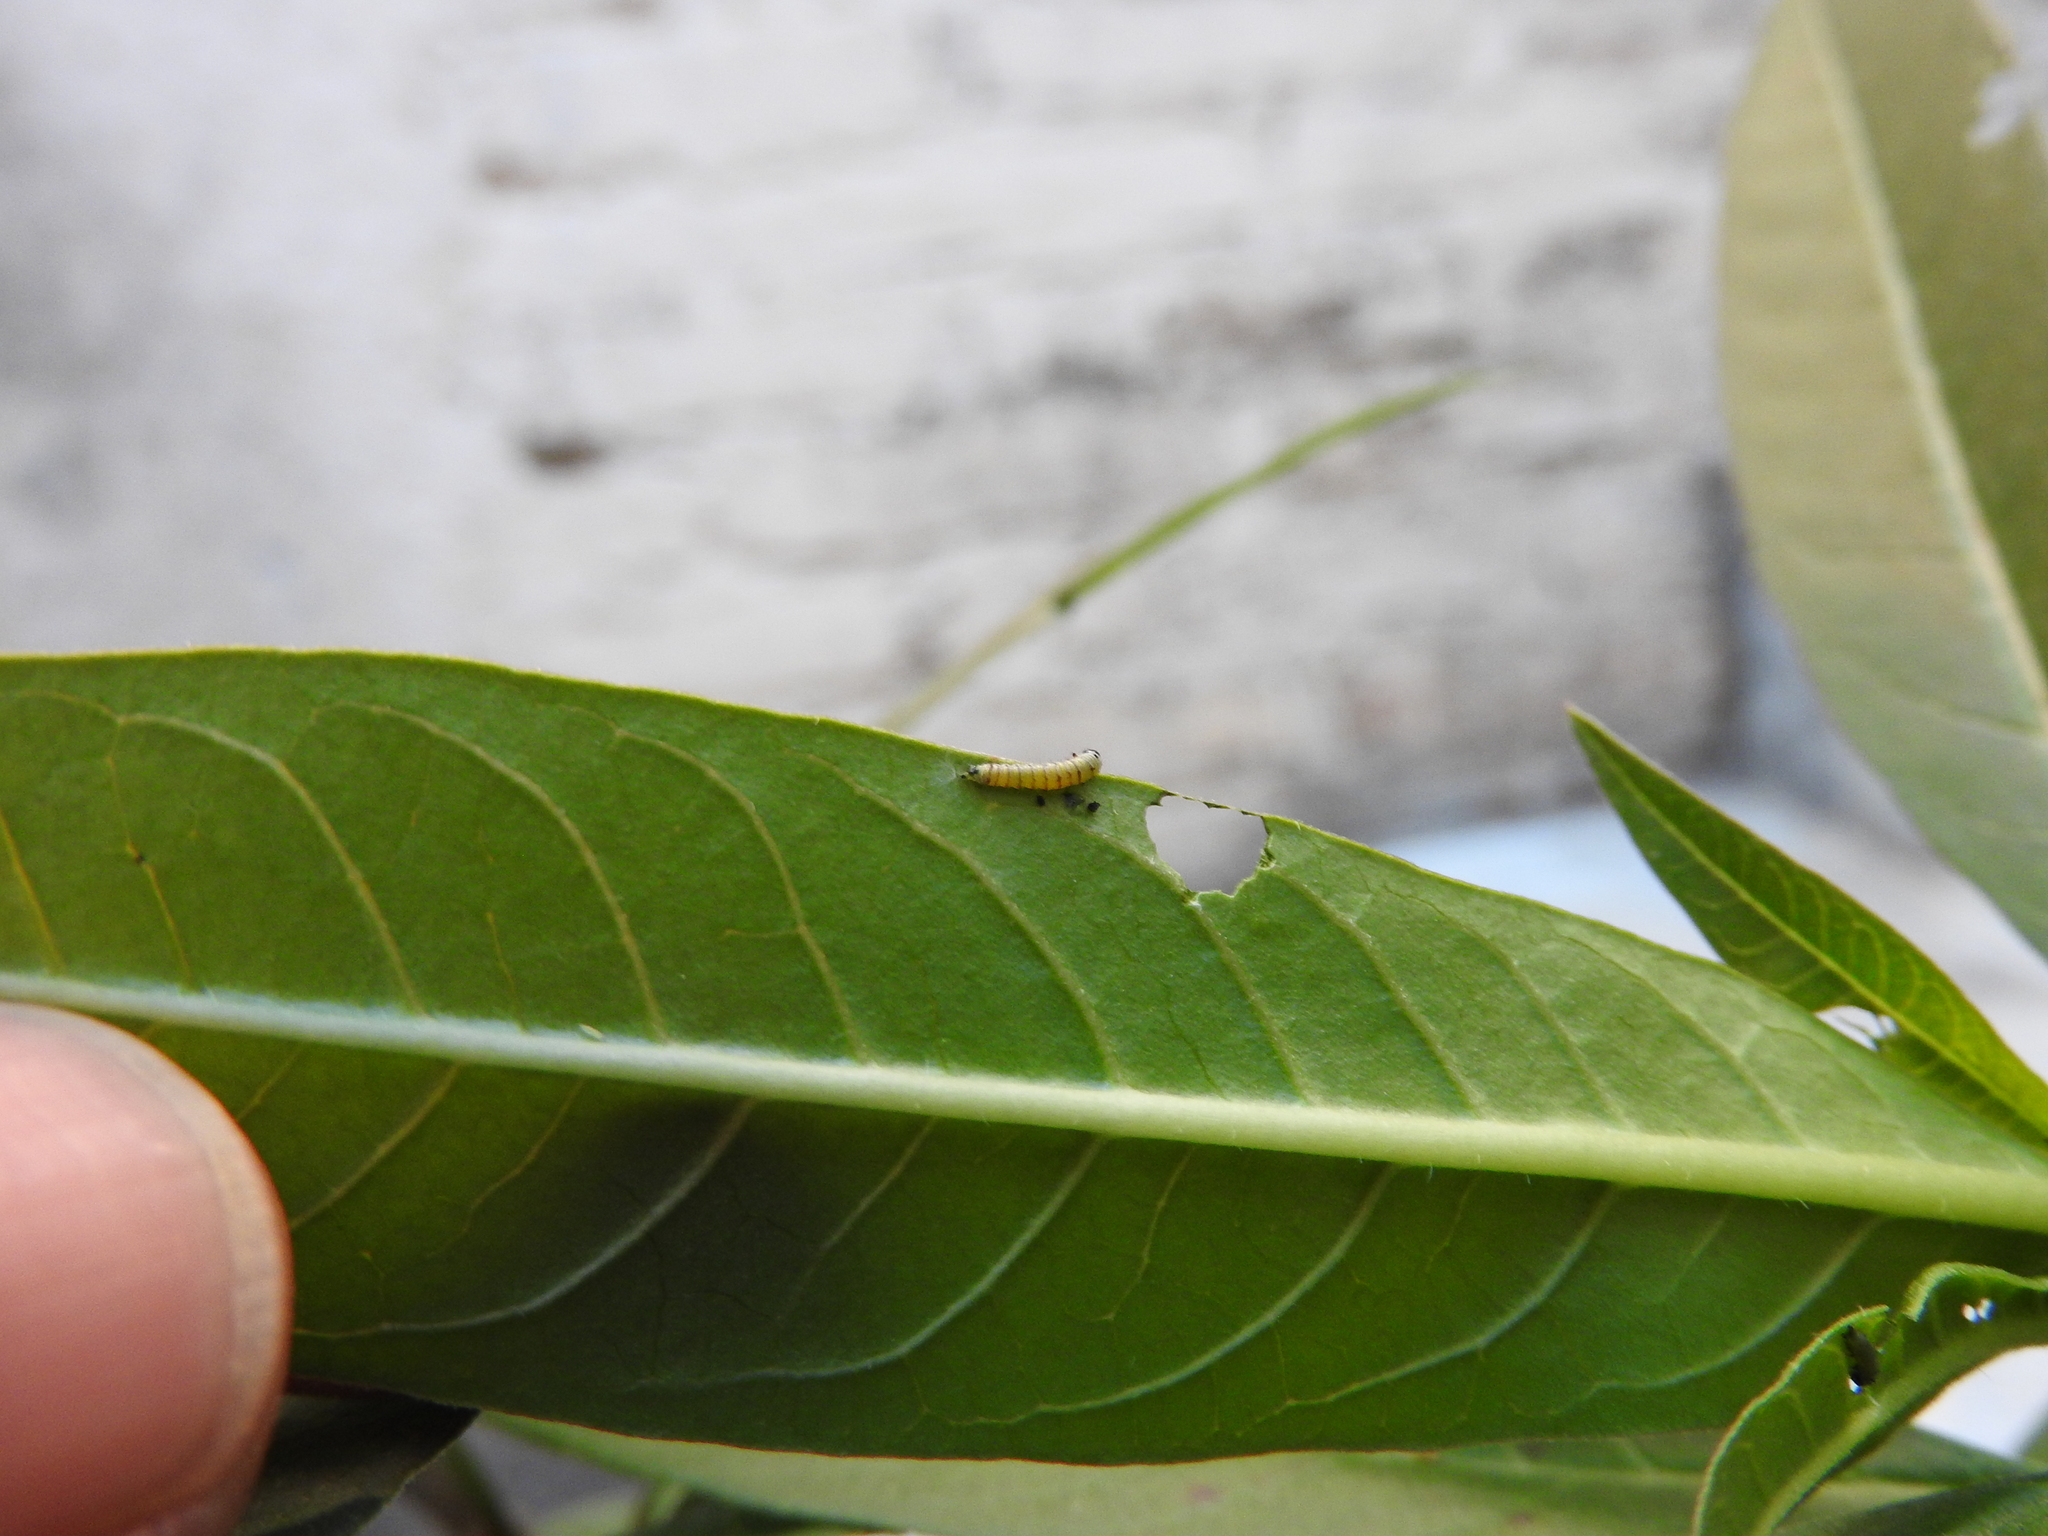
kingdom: Animalia
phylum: Arthropoda
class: Insecta
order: Lepidoptera
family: Nymphalidae
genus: Danaus
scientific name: Danaus plexippus
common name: Monarch
